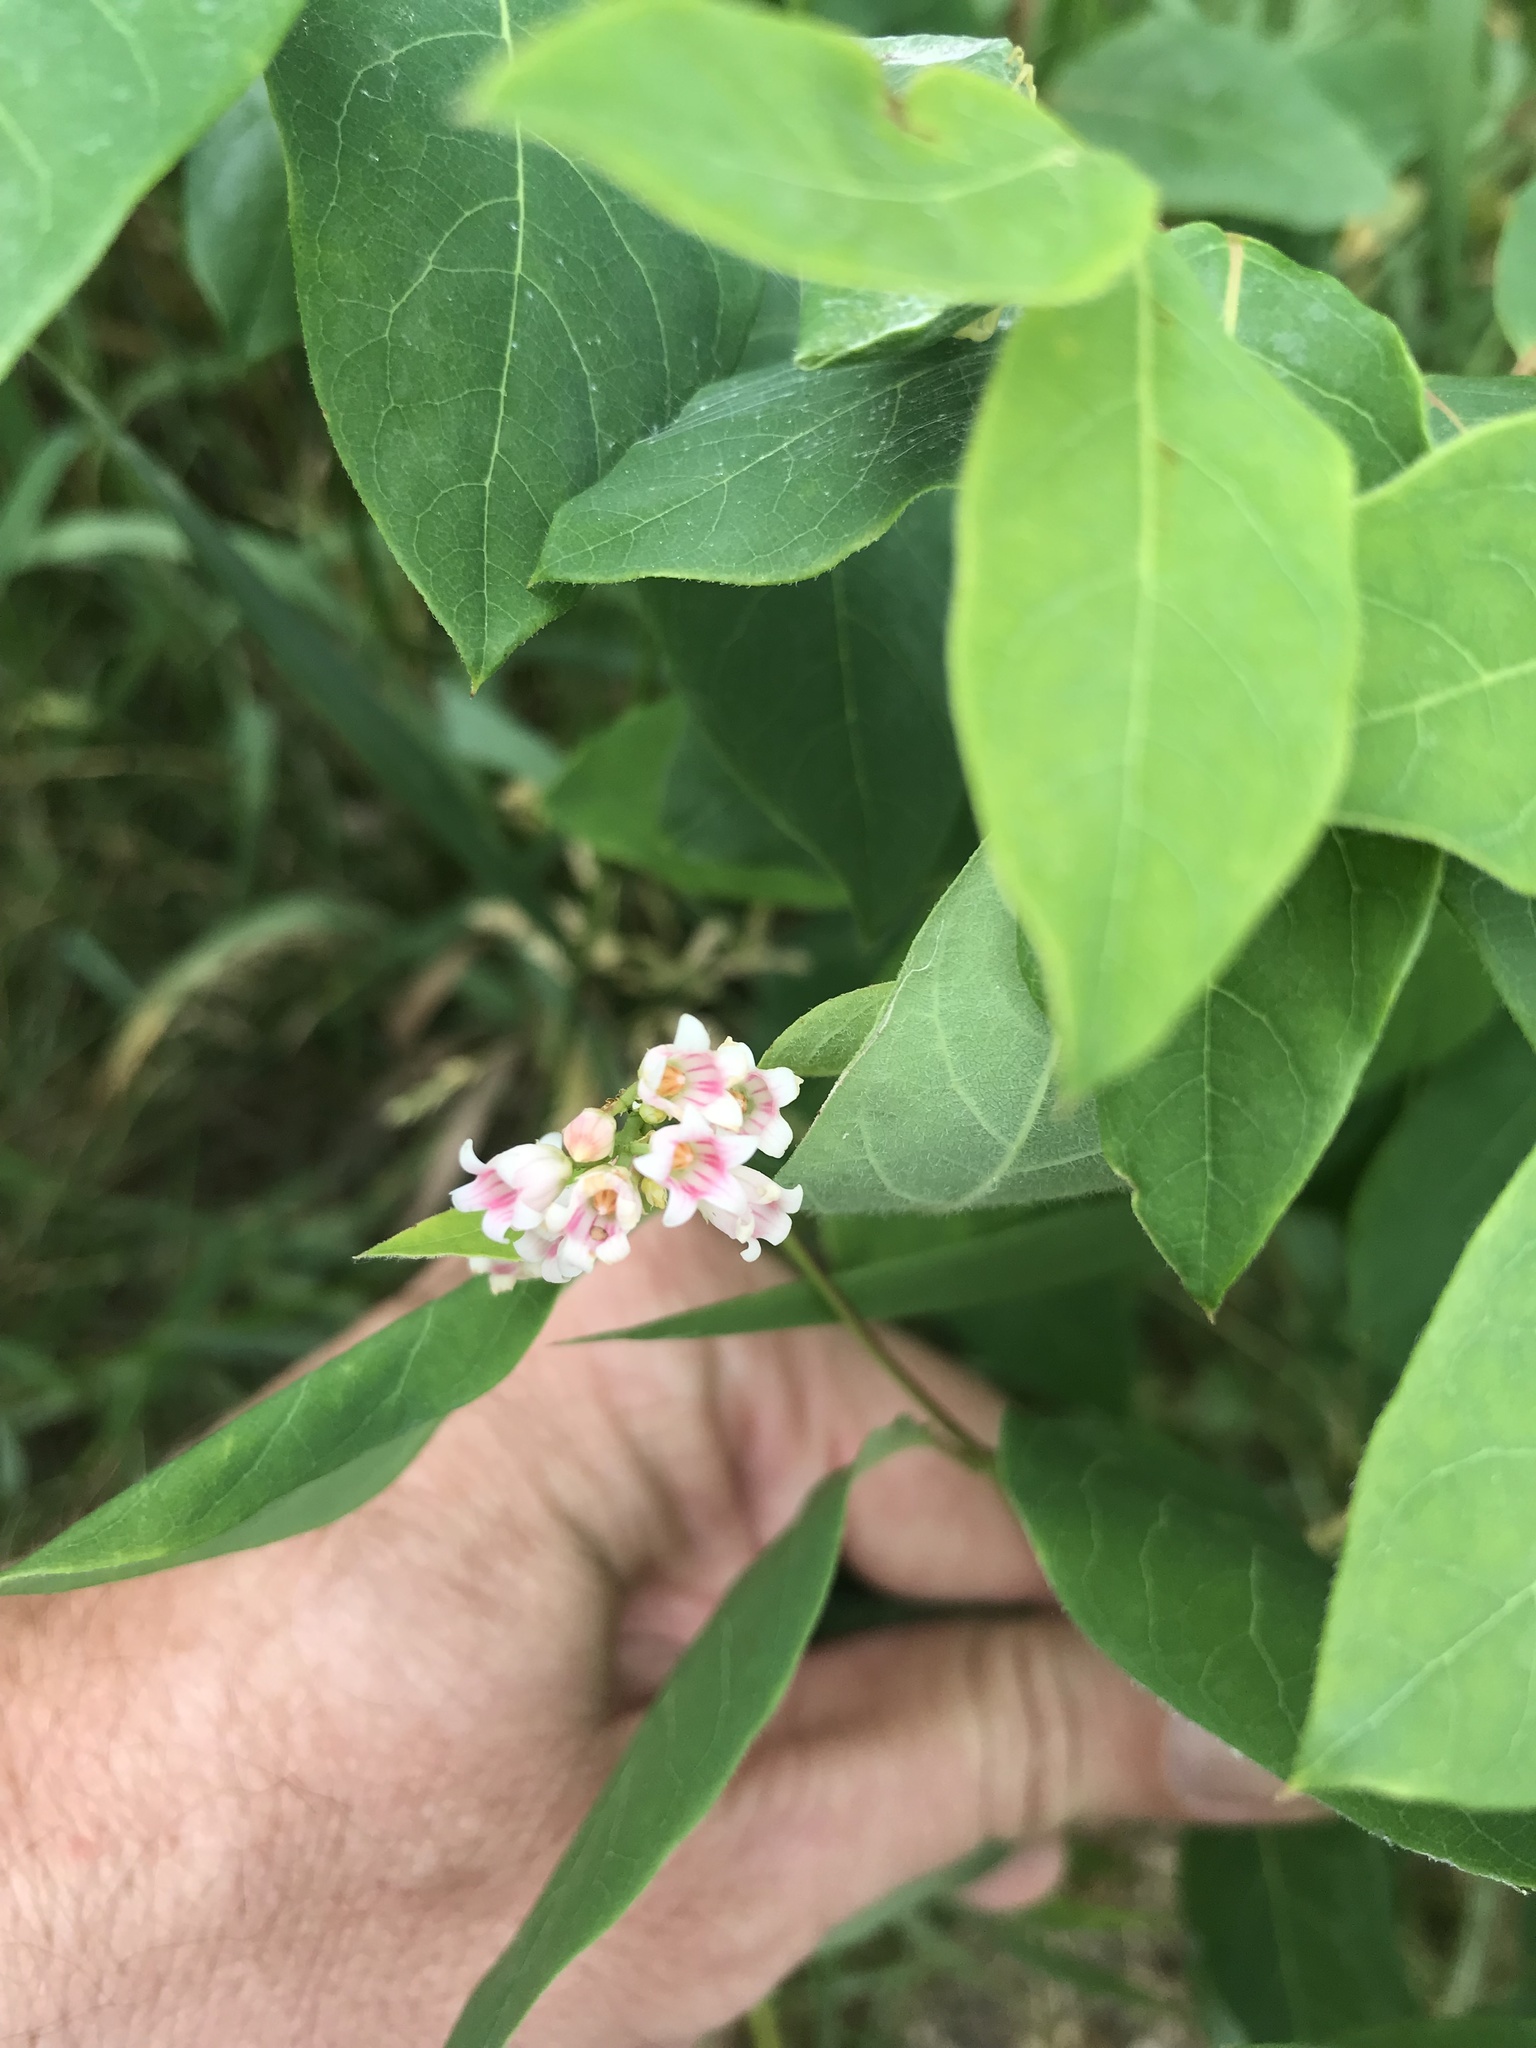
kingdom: Plantae
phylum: Tracheophyta
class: Magnoliopsida
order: Gentianales
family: Apocynaceae
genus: Apocynum
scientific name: Apocynum androsaemifolium
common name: Spreading dogbane
